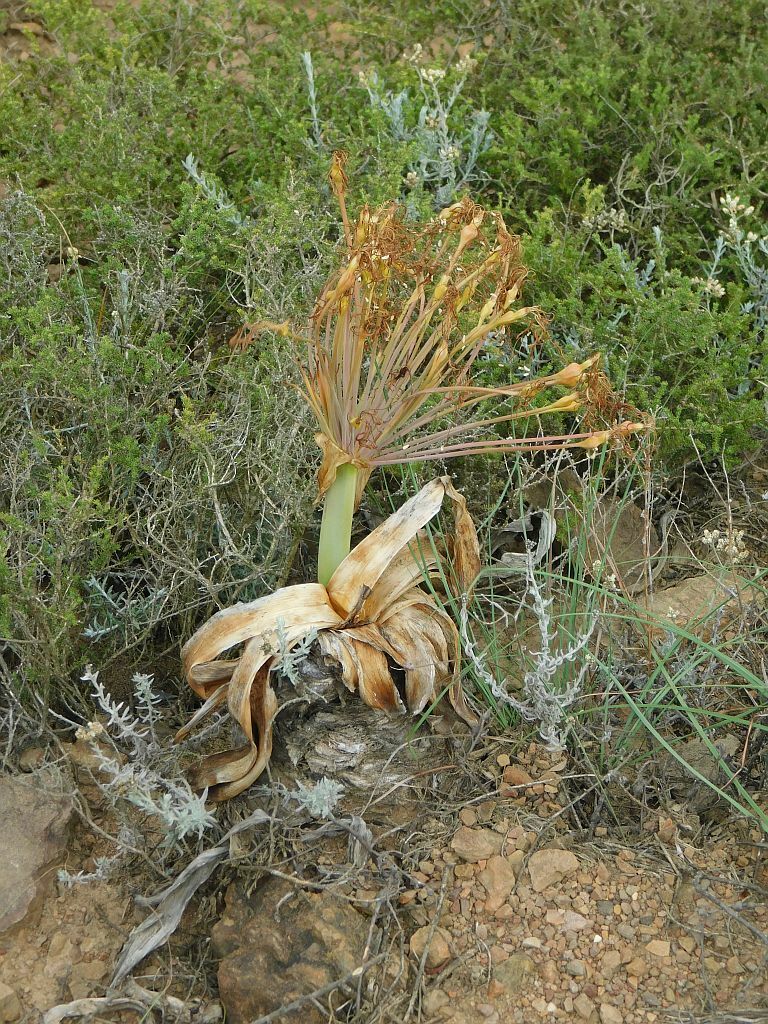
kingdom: Plantae
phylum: Tracheophyta
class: Liliopsida
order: Asparagales
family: Amaryllidaceae
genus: Boophone
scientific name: Boophone disticha
